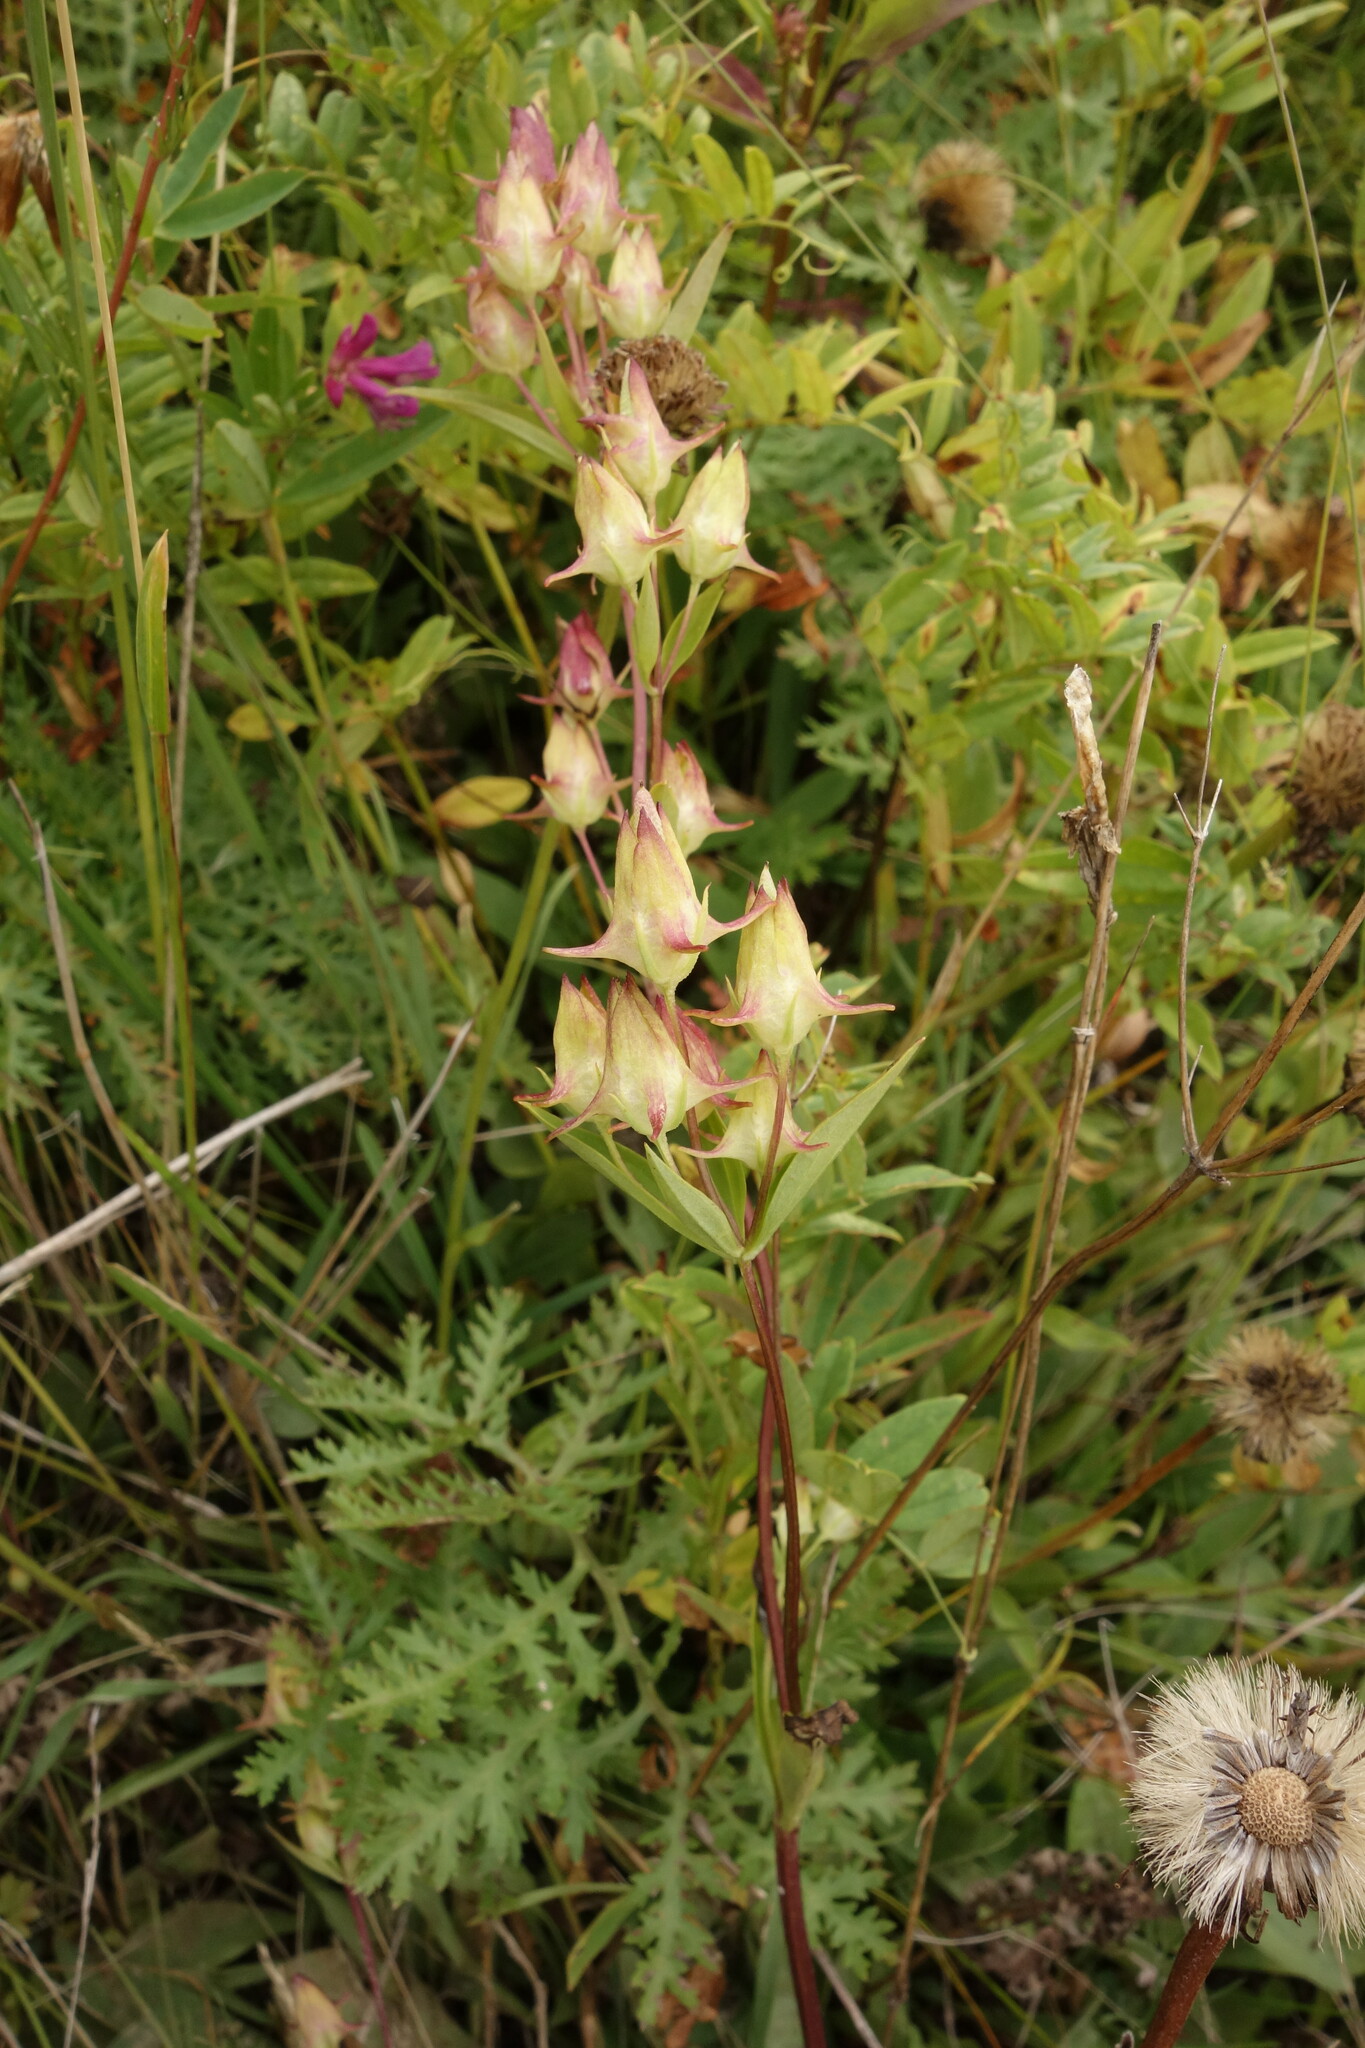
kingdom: Plantae
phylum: Tracheophyta
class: Magnoliopsida
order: Gentianales
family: Gentianaceae
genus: Halenia
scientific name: Halenia corniculata
